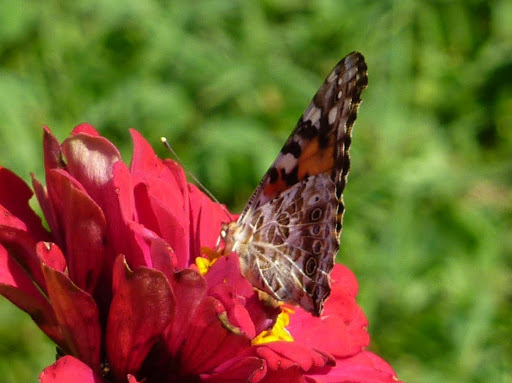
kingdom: Animalia
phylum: Arthropoda
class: Insecta
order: Lepidoptera
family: Nymphalidae
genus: Vanessa
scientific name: Vanessa cardui
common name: Painted lady
